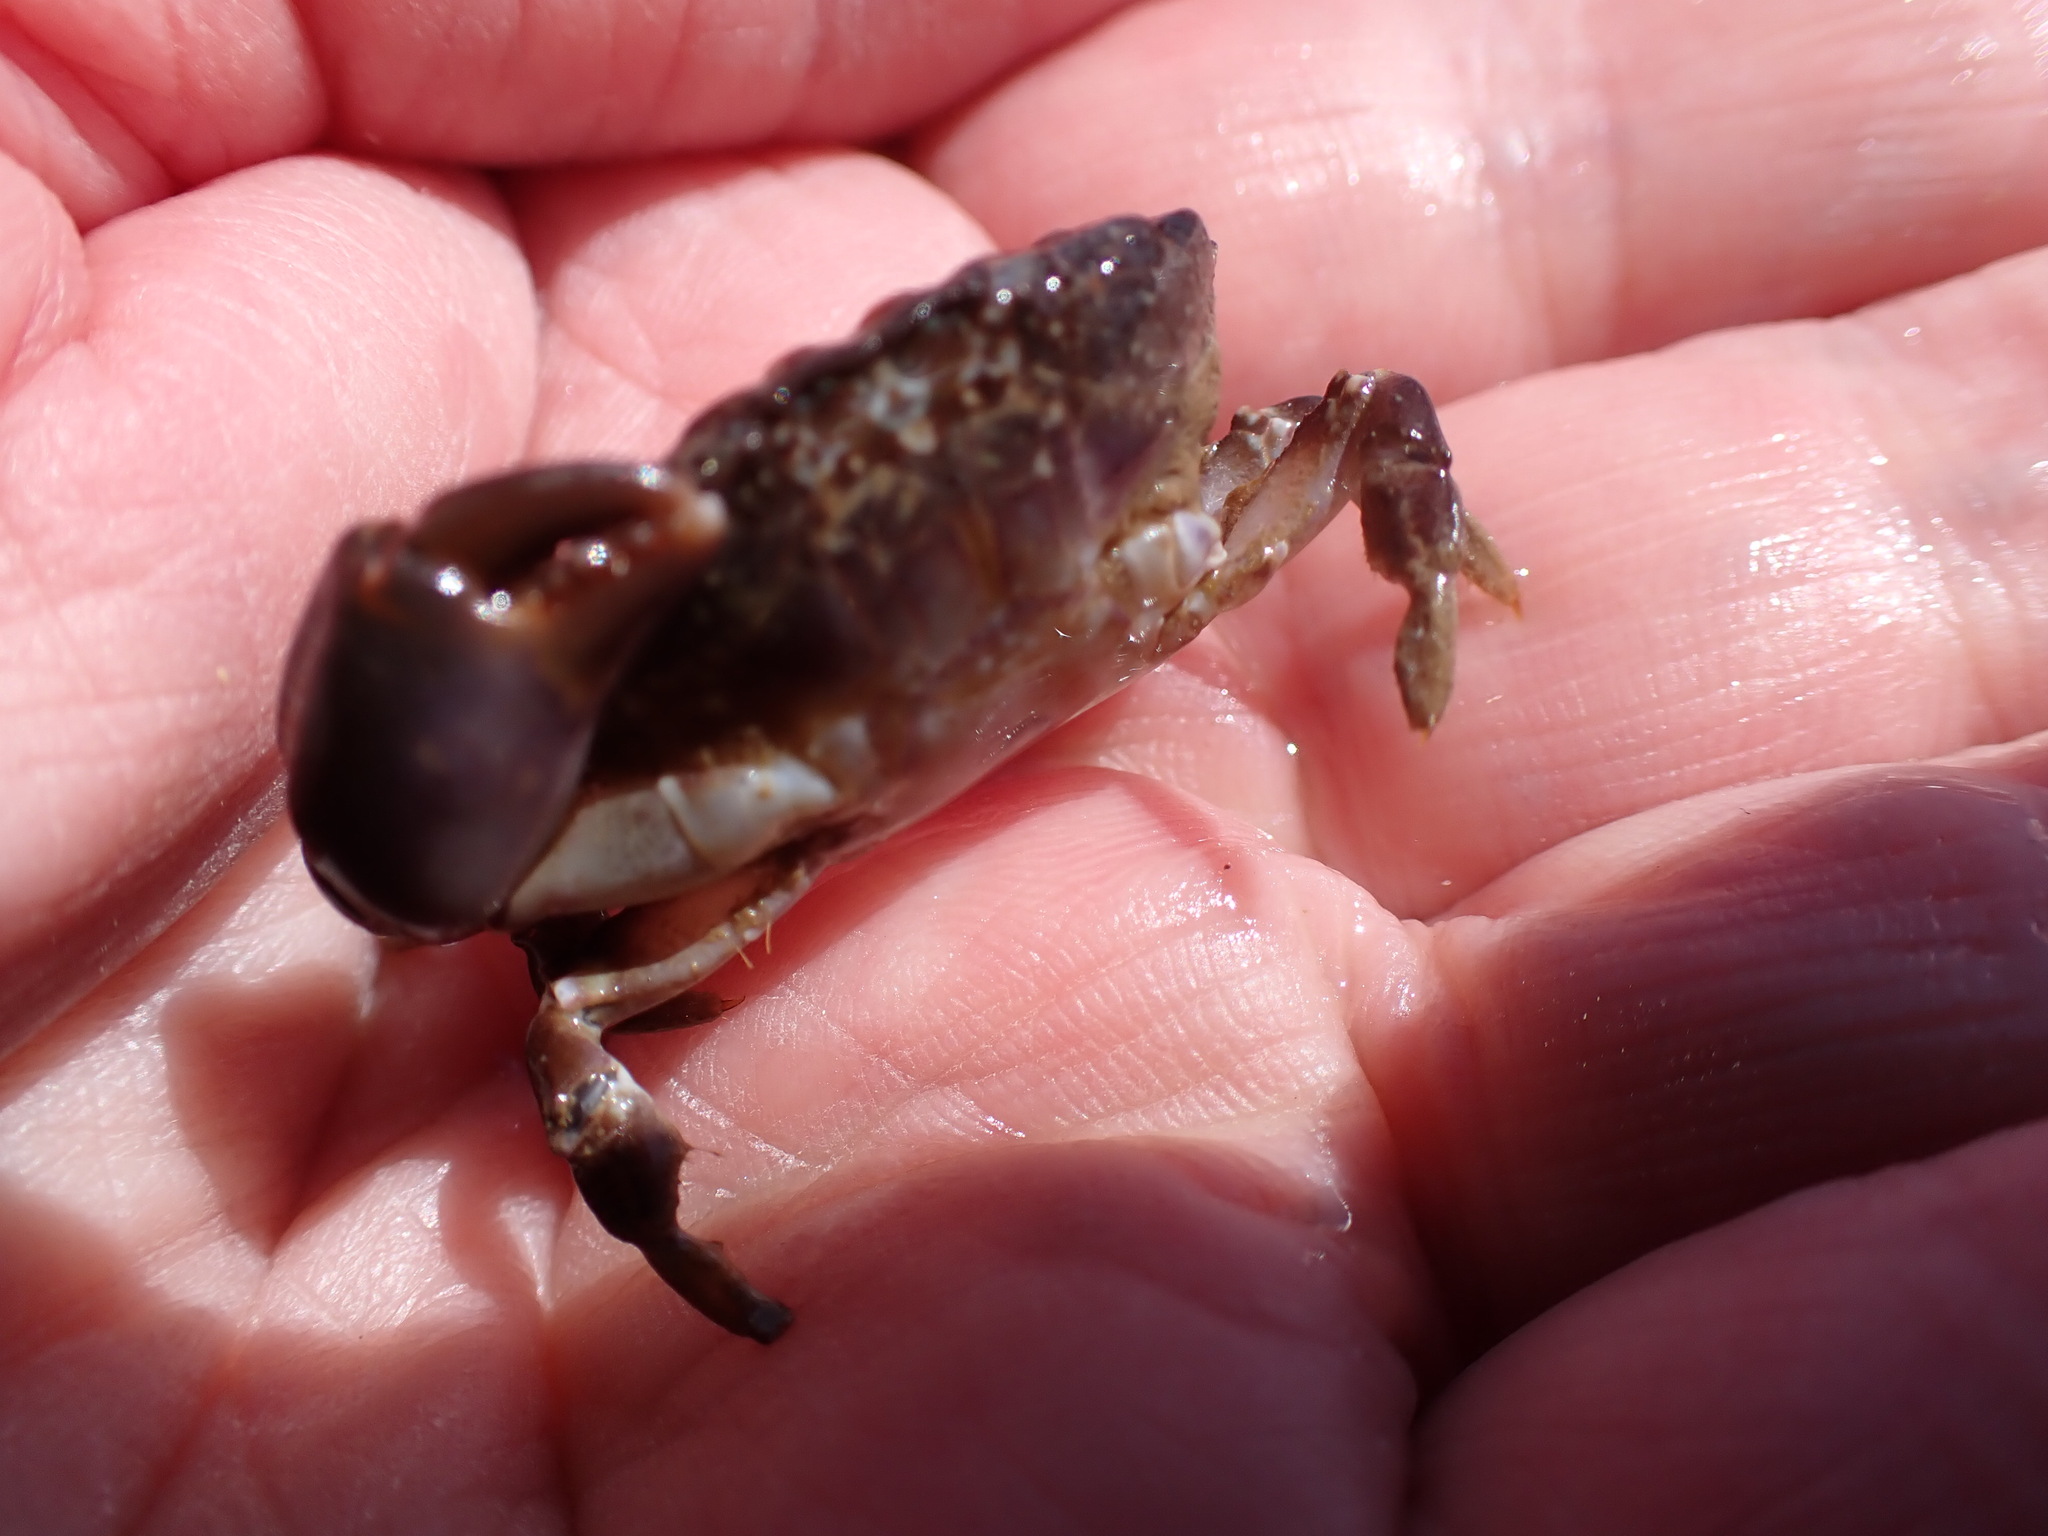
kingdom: Animalia
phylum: Arthropoda
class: Malacostraca
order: Decapoda
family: Xanthidae
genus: Lophozozymus
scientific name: Lophozozymus incisus
